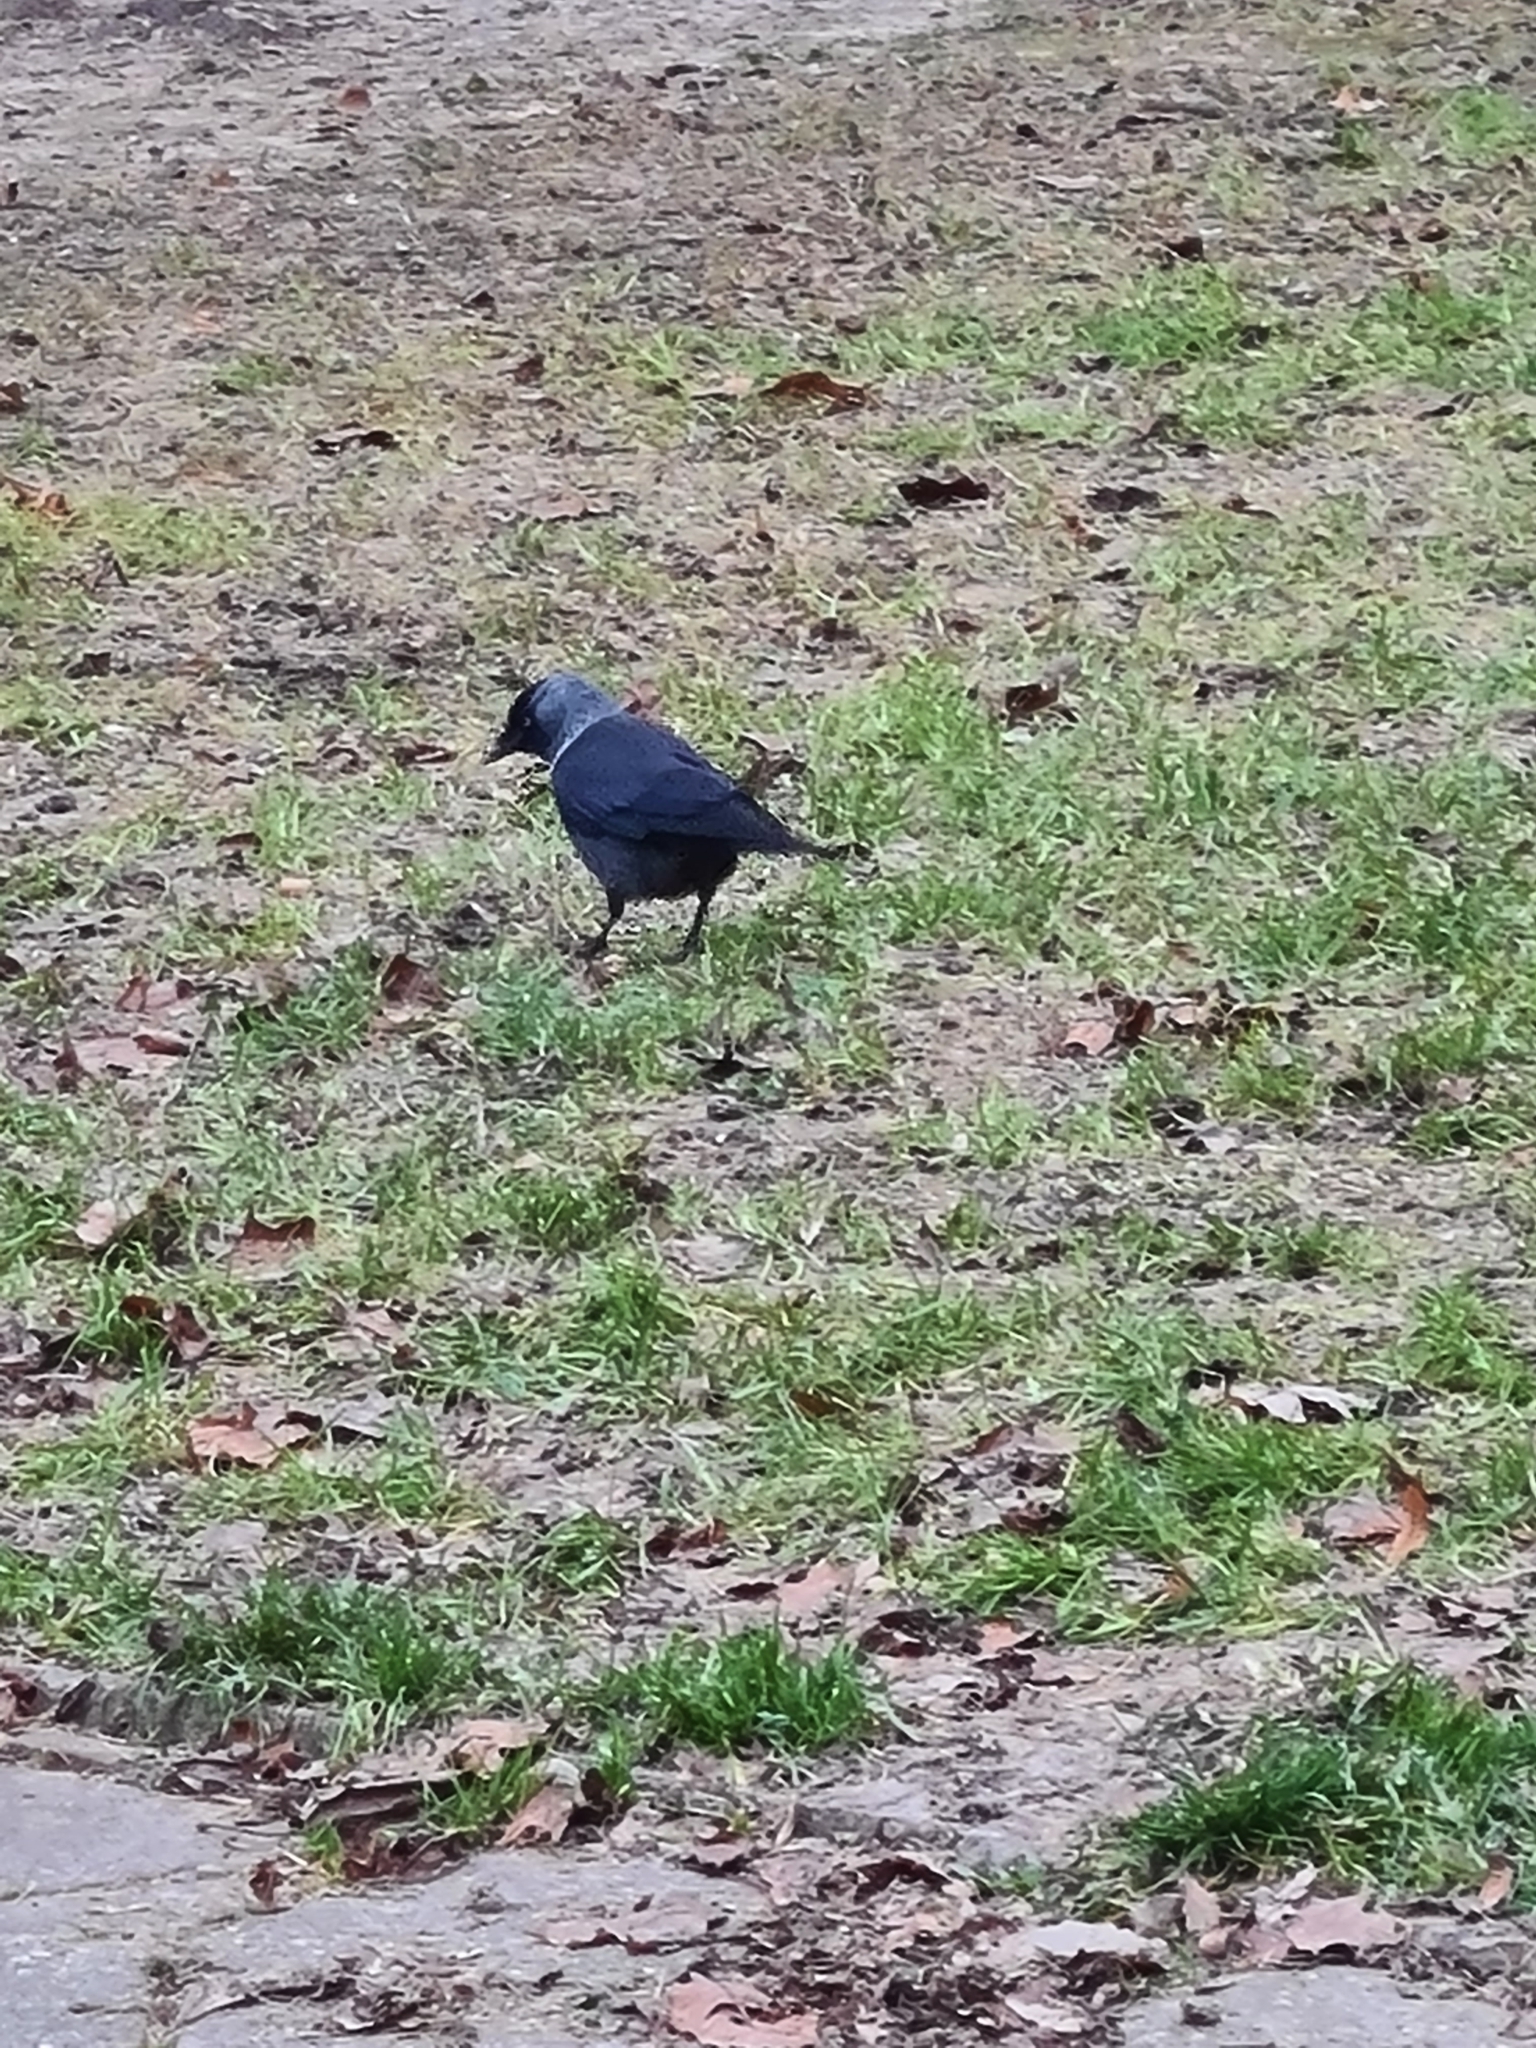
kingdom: Animalia
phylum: Chordata
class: Aves
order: Passeriformes
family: Corvidae
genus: Coloeus
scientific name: Coloeus monedula
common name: Western jackdaw
